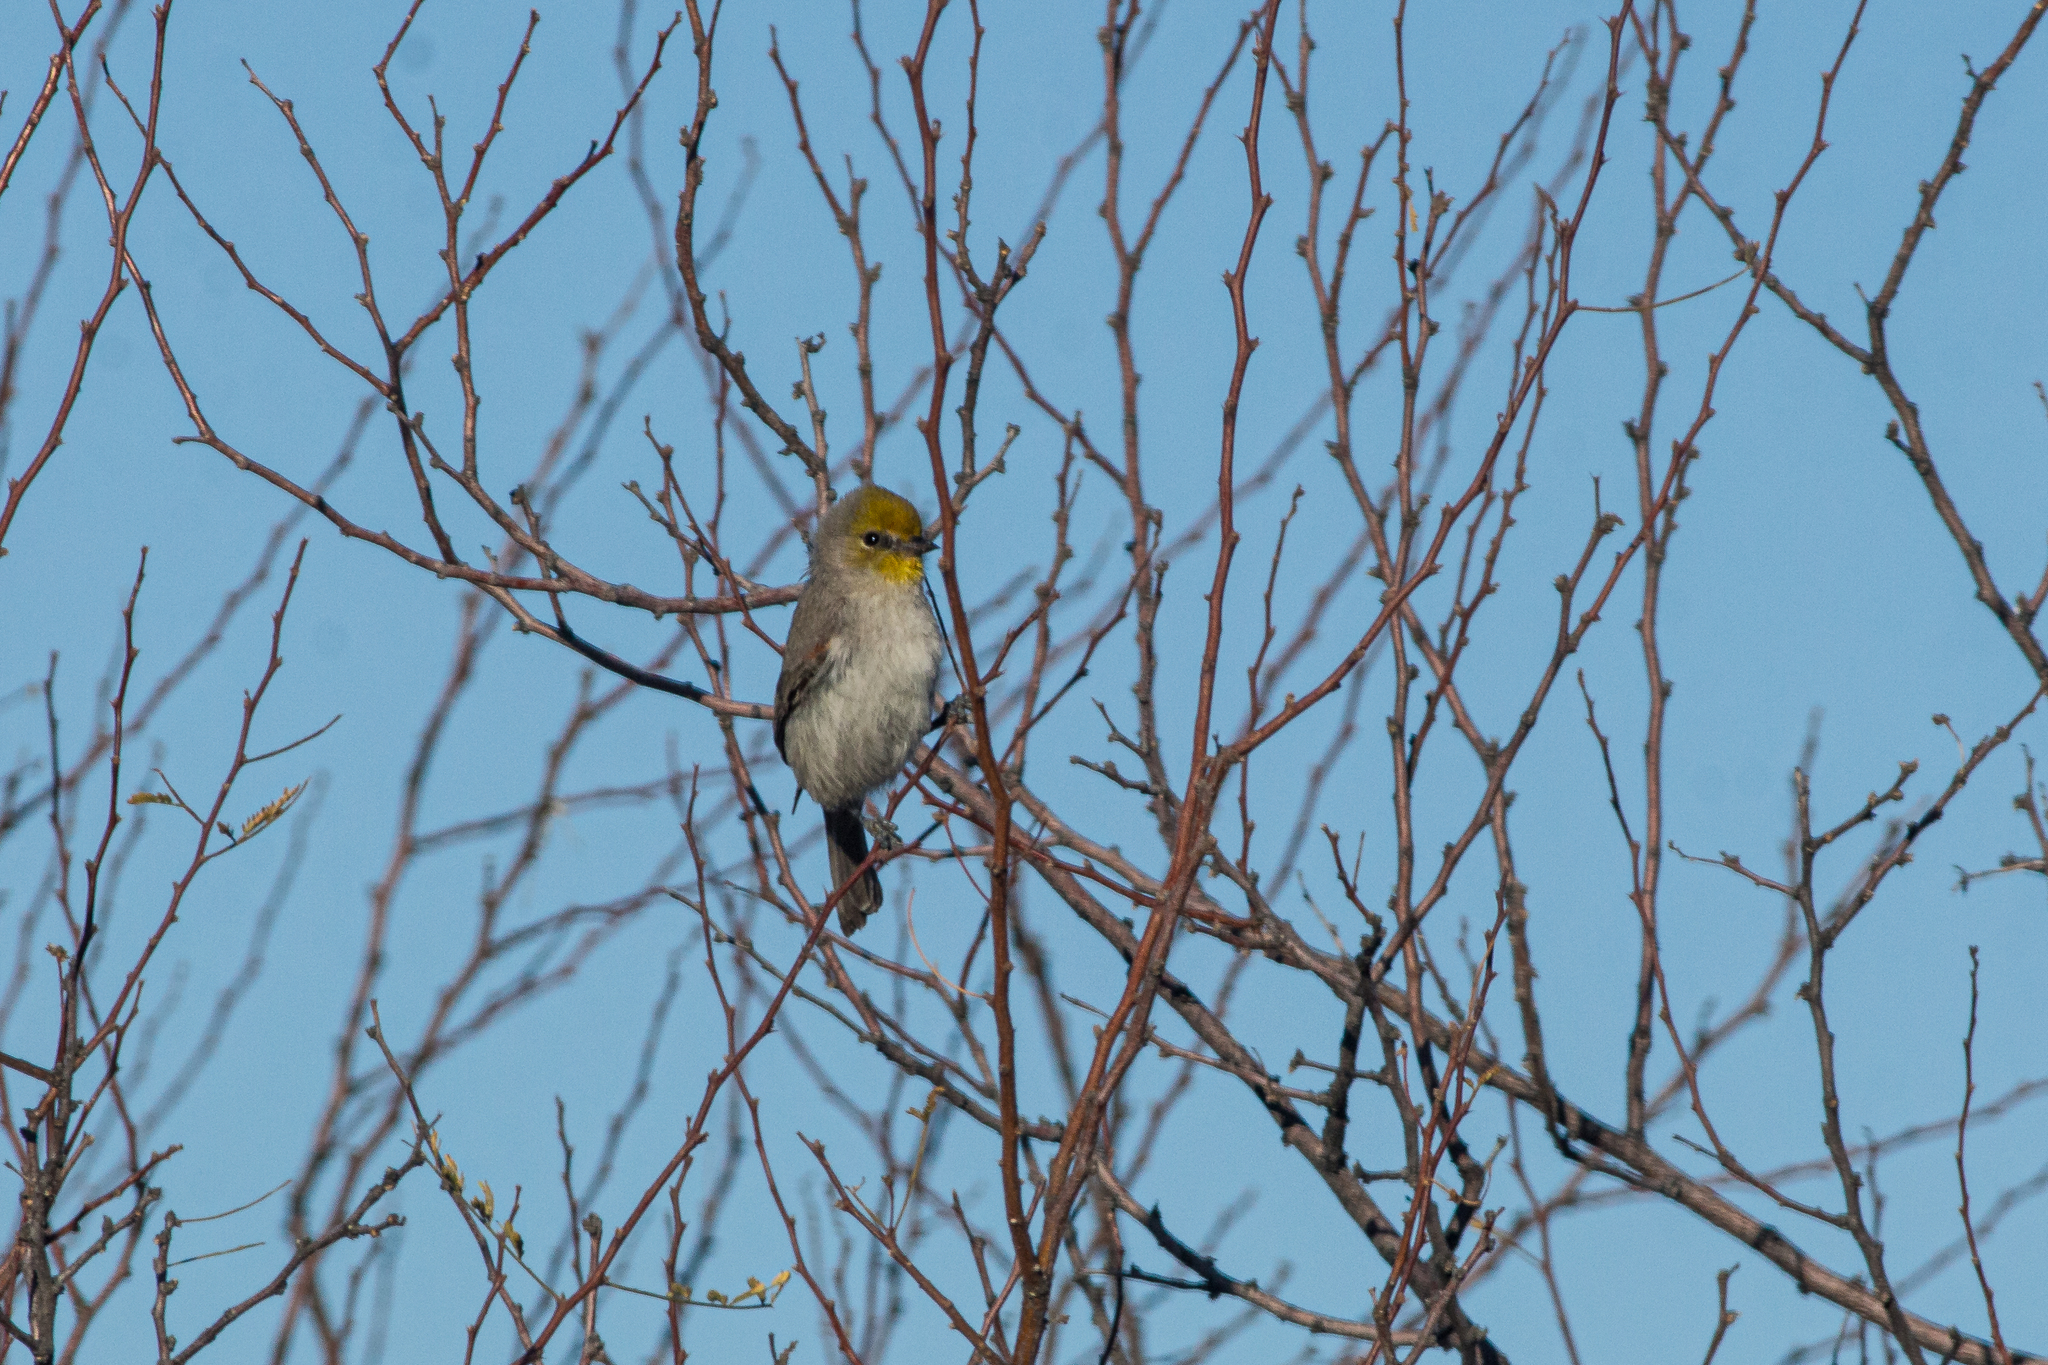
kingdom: Animalia
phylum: Chordata
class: Aves
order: Passeriformes
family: Remizidae
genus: Auriparus
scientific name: Auriparus flaviceps
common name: Verdin
